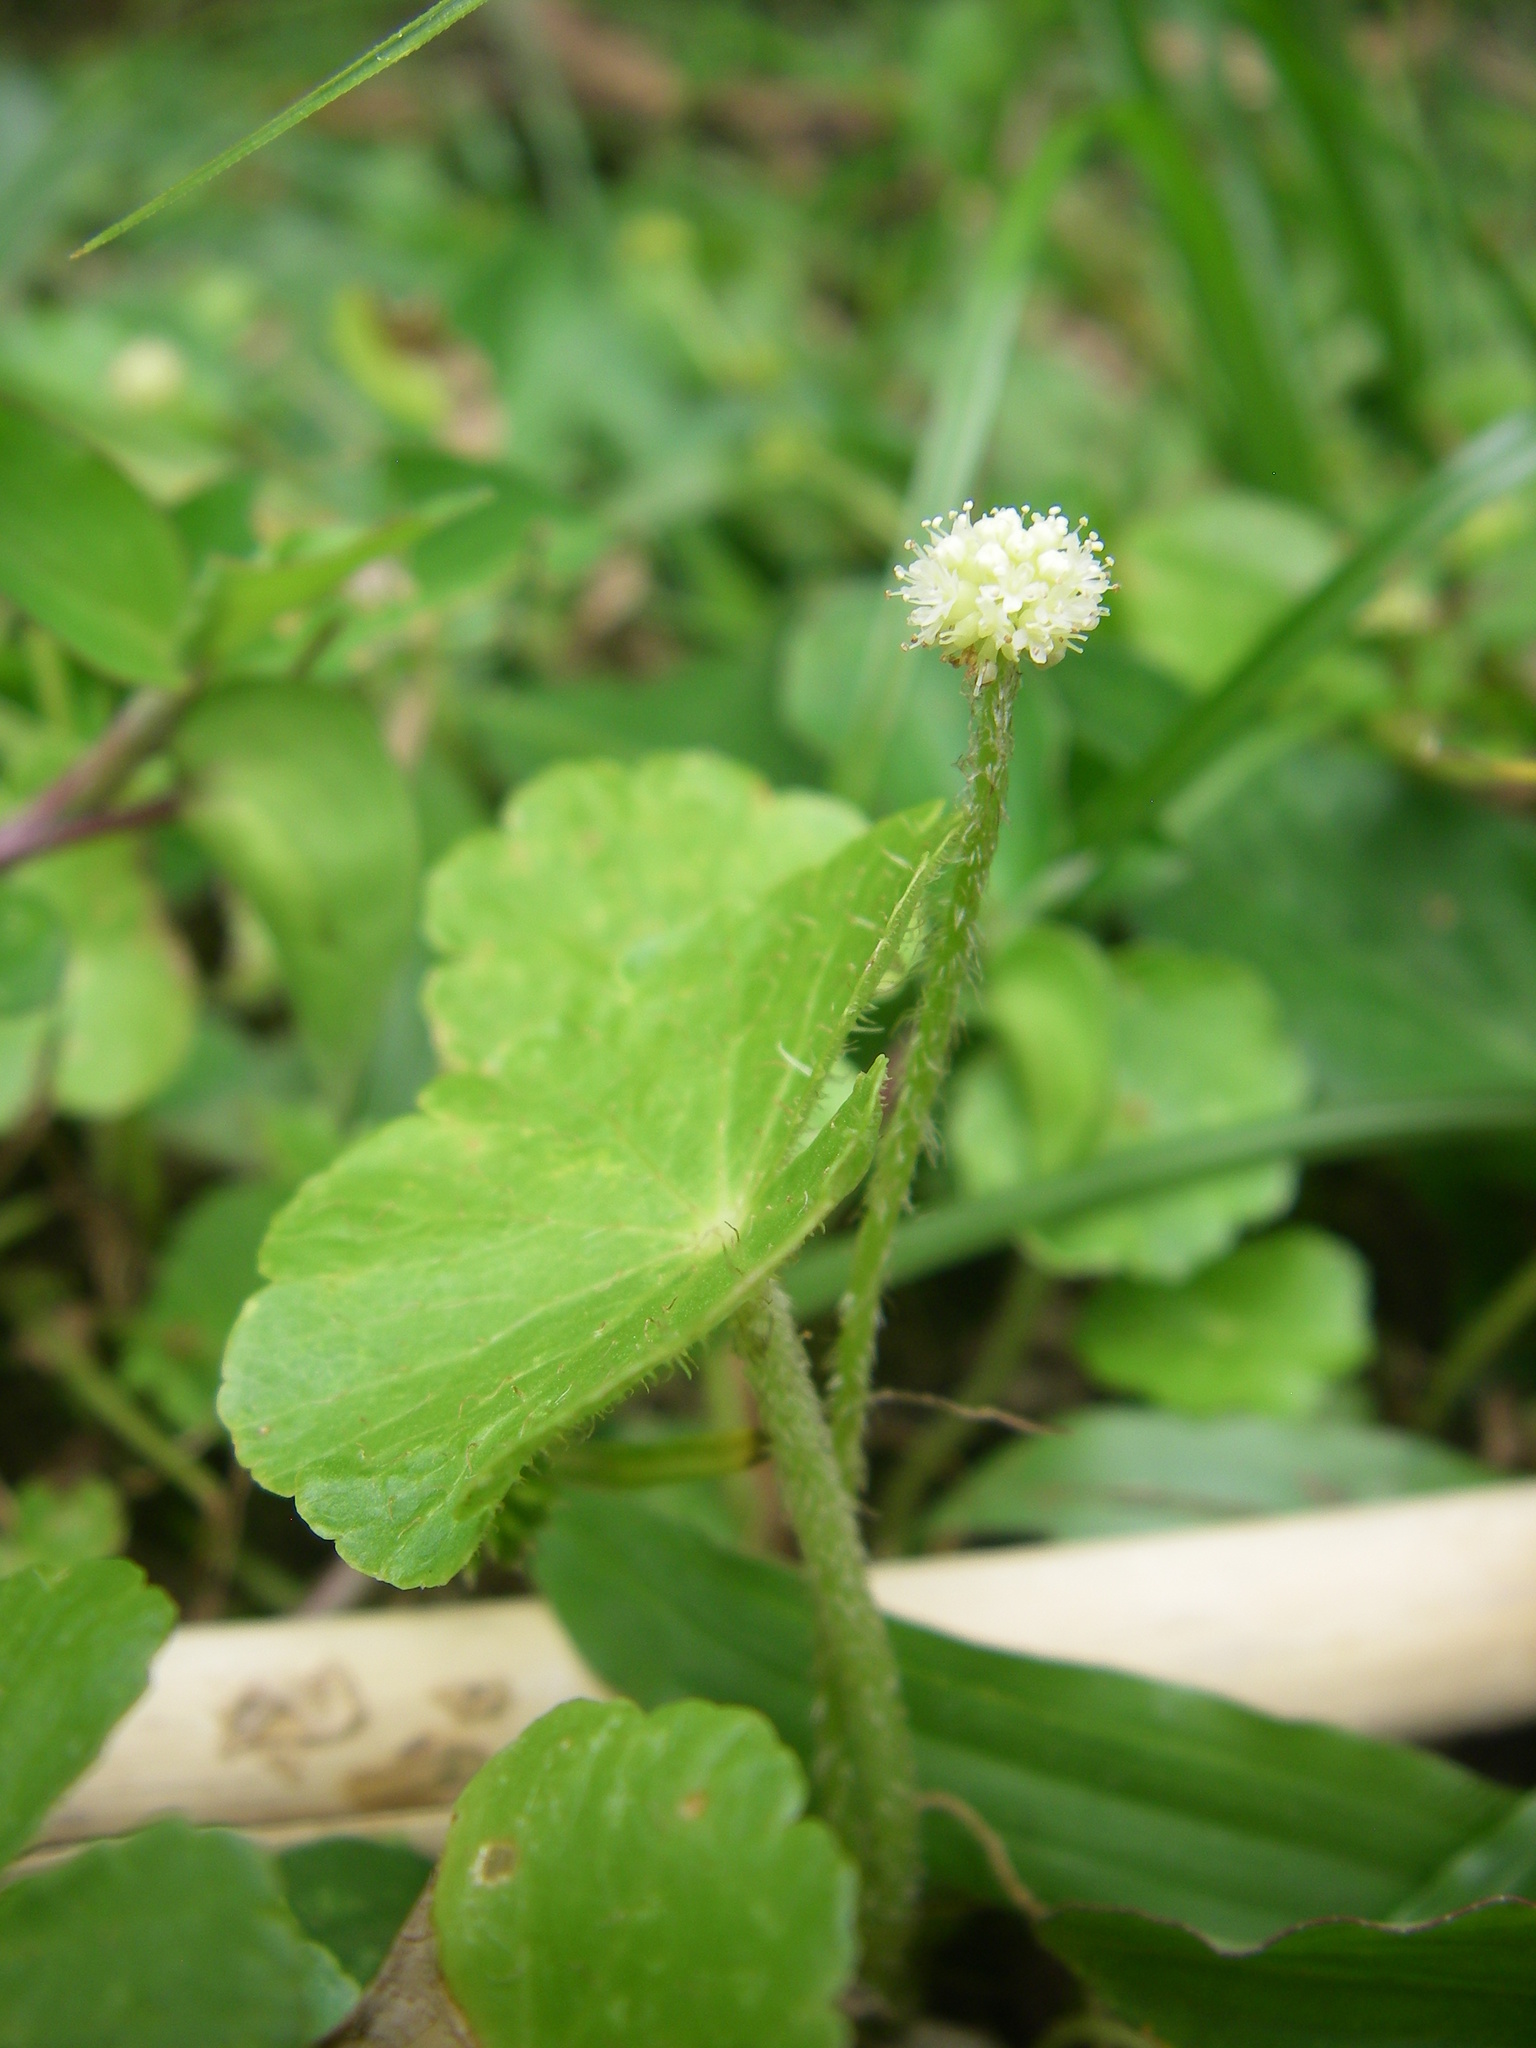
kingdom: Plantae
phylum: Tracheophyta
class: Magnoliopsida
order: Apiales
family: Araliaceae
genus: Hydrocotyle
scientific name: Hydrocotyle leucocephala
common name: Brazilian pennywort
